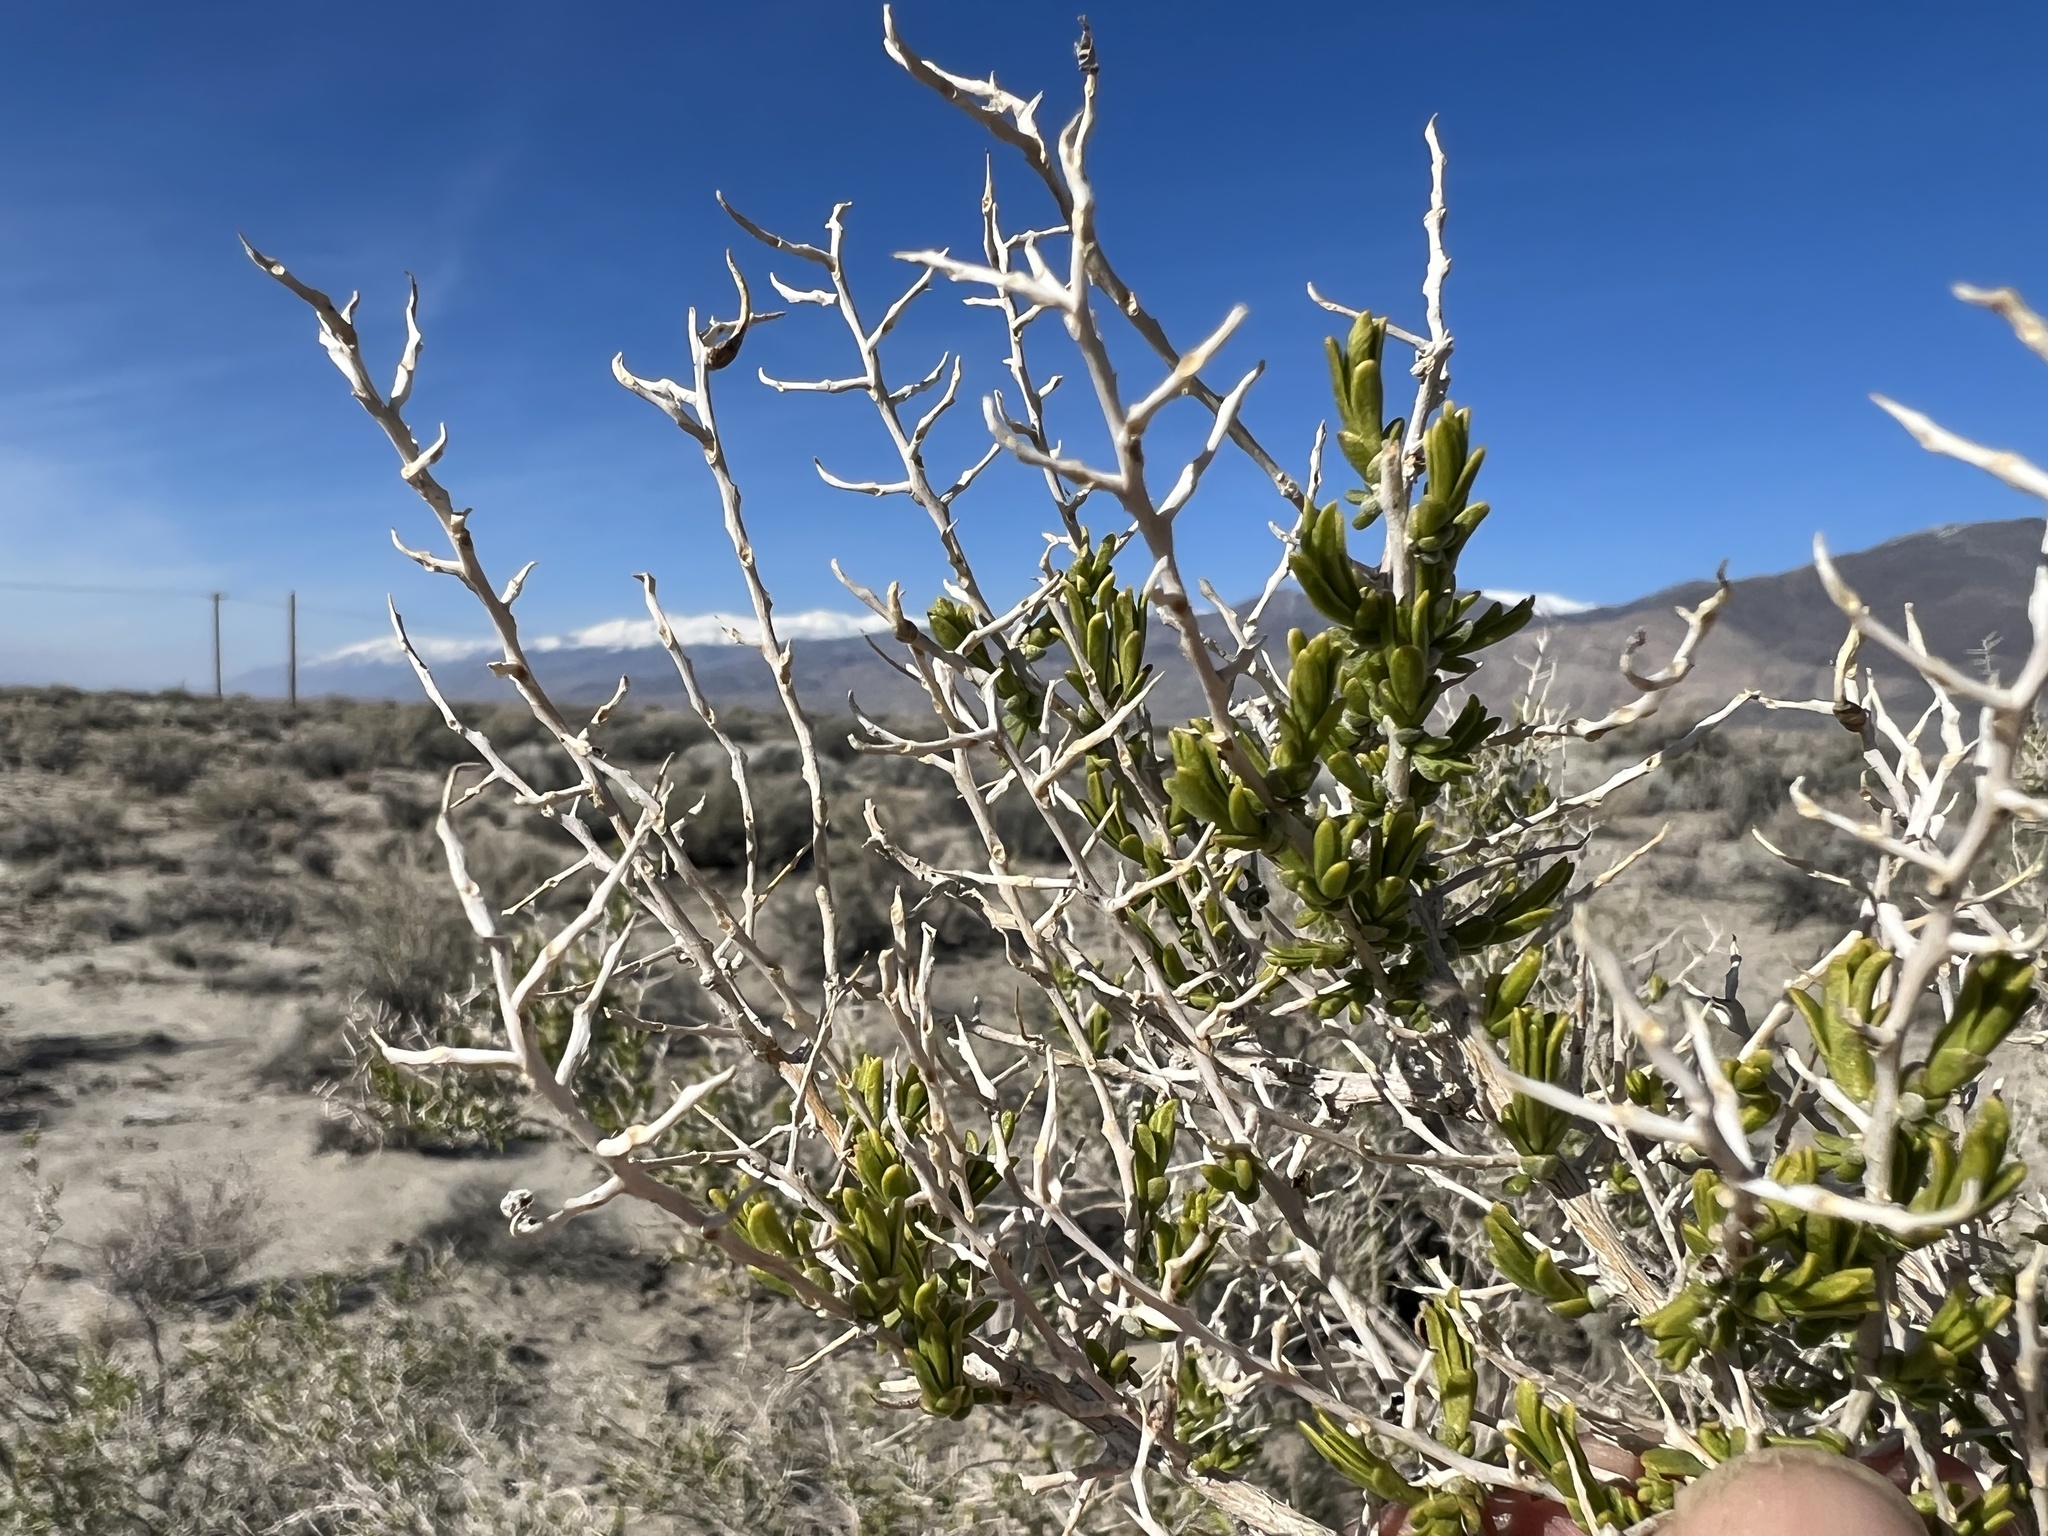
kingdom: Plantae
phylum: Tracheophyta
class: Magnoliopsida
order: Caryophyllales
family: Sarcobataceae
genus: Sarcobatus
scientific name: Sarcobatus vermiculatus
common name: Greasewood
